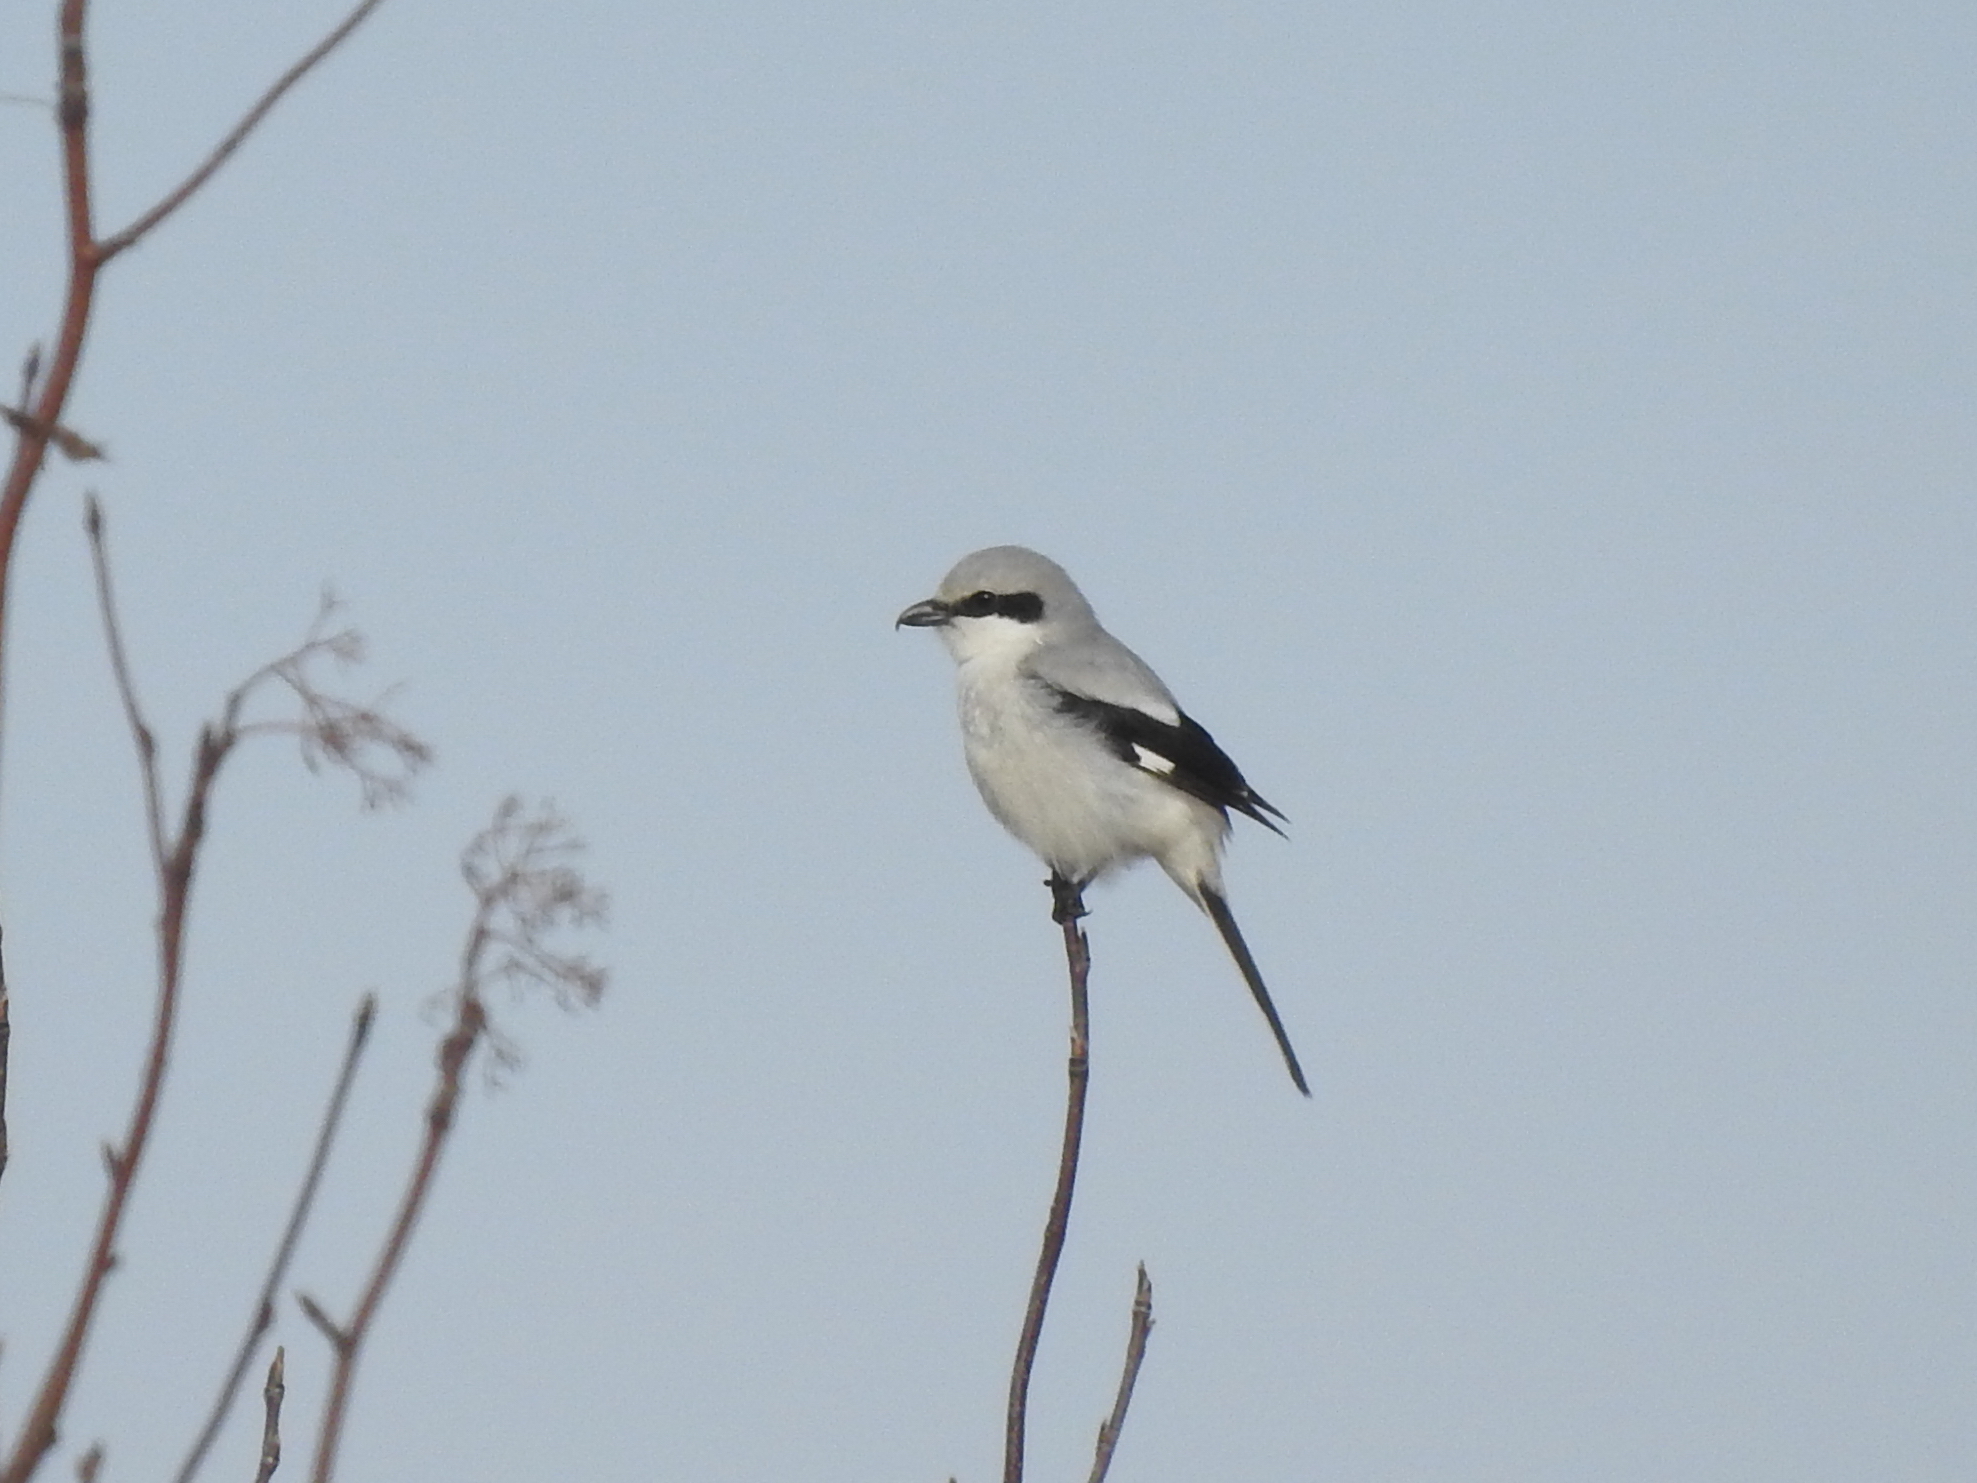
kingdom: Animalia
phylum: Chordata
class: Aves
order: Passeriformes
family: Laniidae
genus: Lanius
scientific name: Lanius excubitor
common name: Great grey shrike
